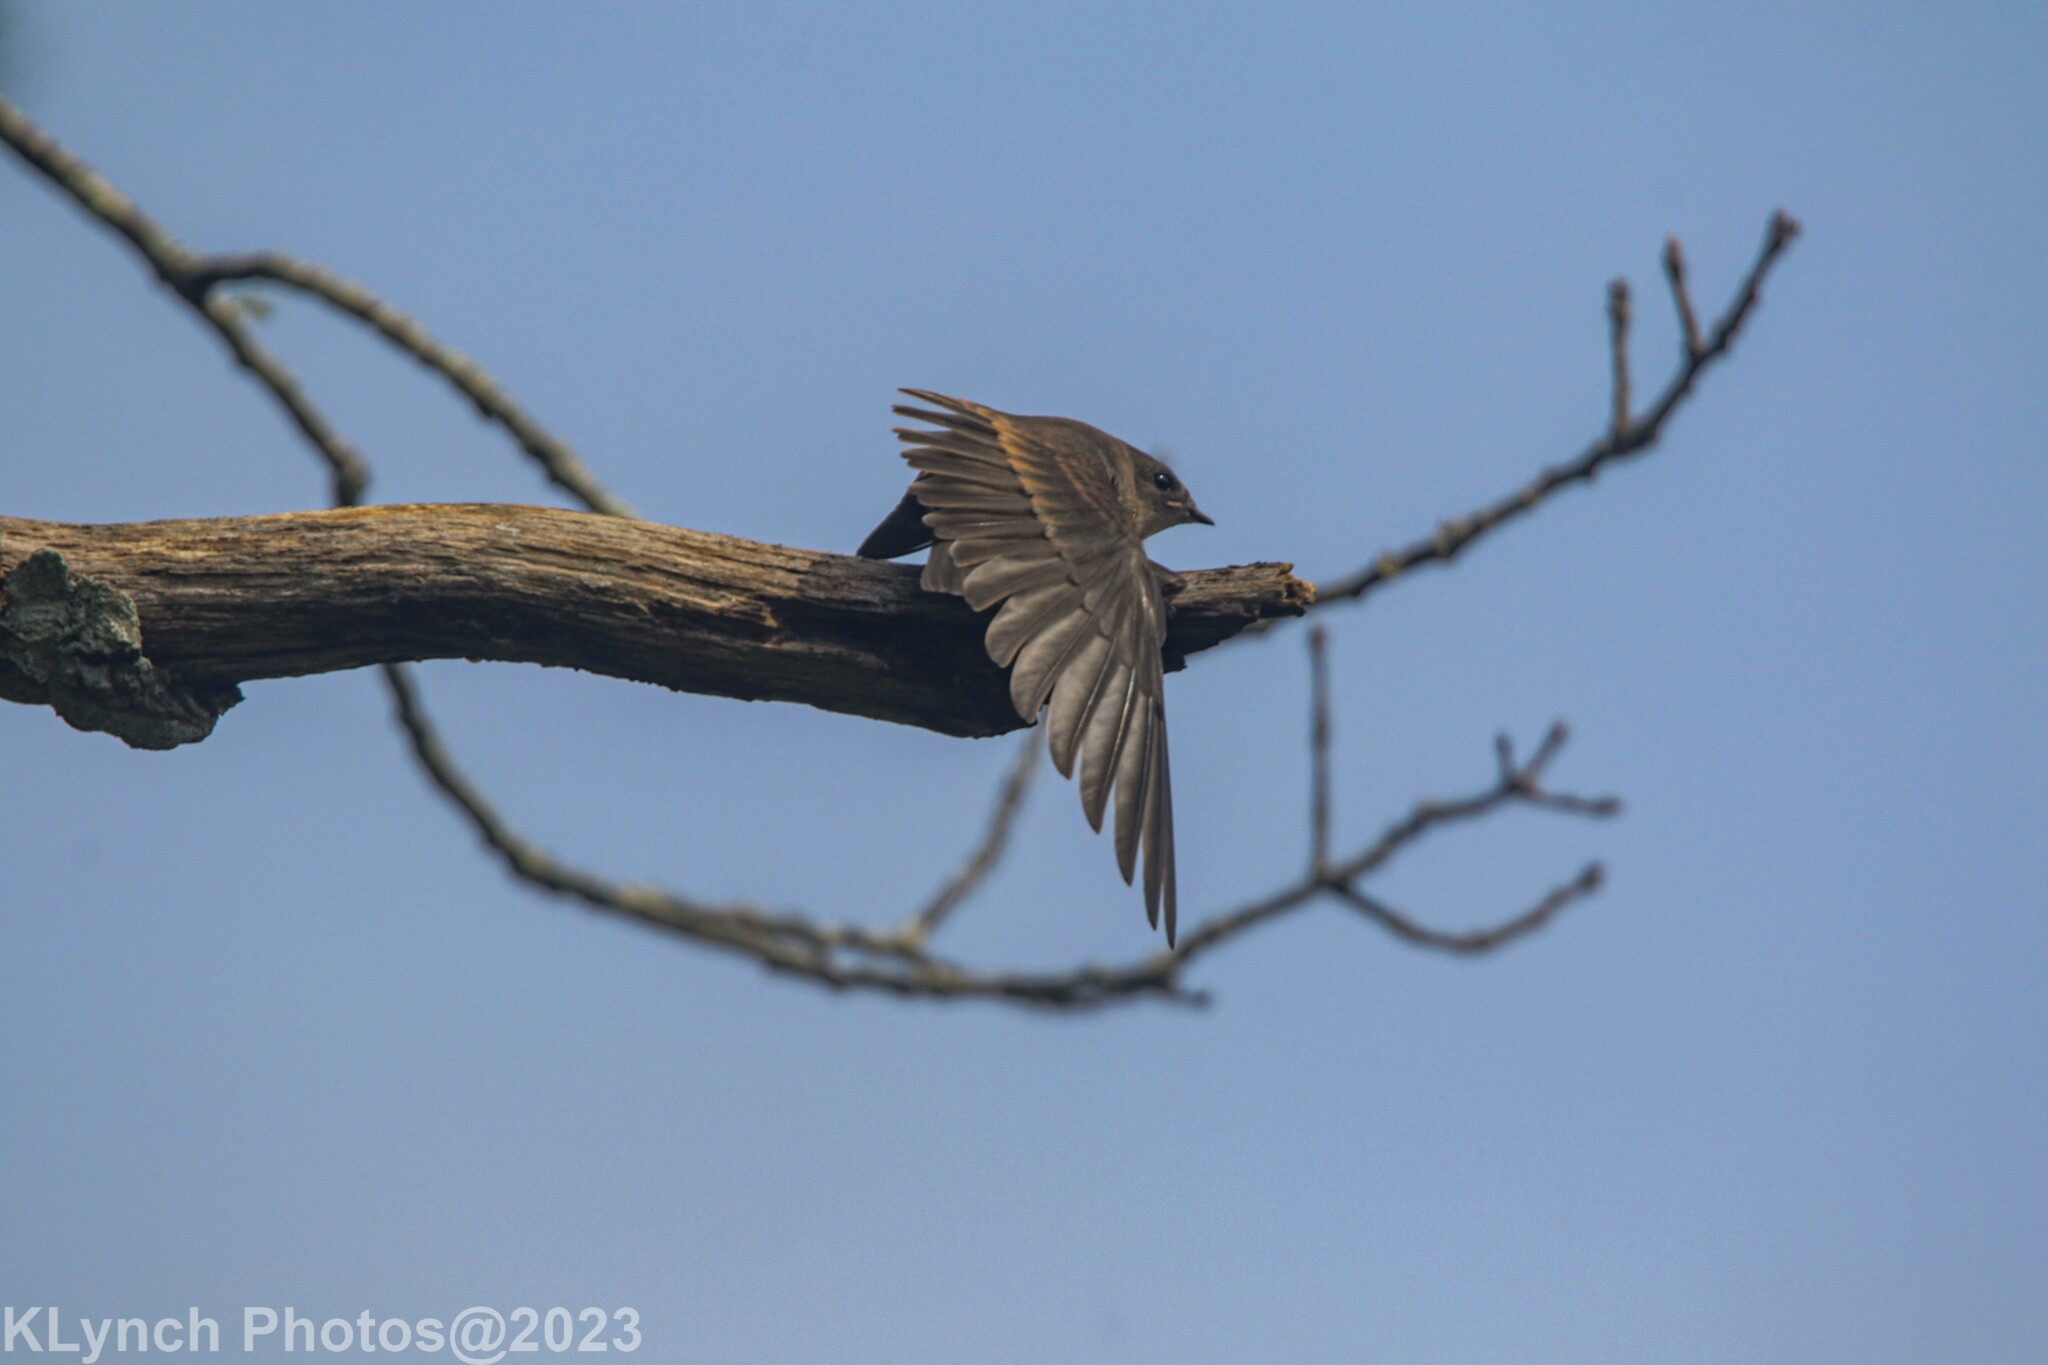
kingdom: Animalia
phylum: Chordata
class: Aves
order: Passeriformes
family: Hirundinidae
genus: Stelgidopteryx
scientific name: Stelgidopteryx serripennis
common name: Northern rough-winged swallow
